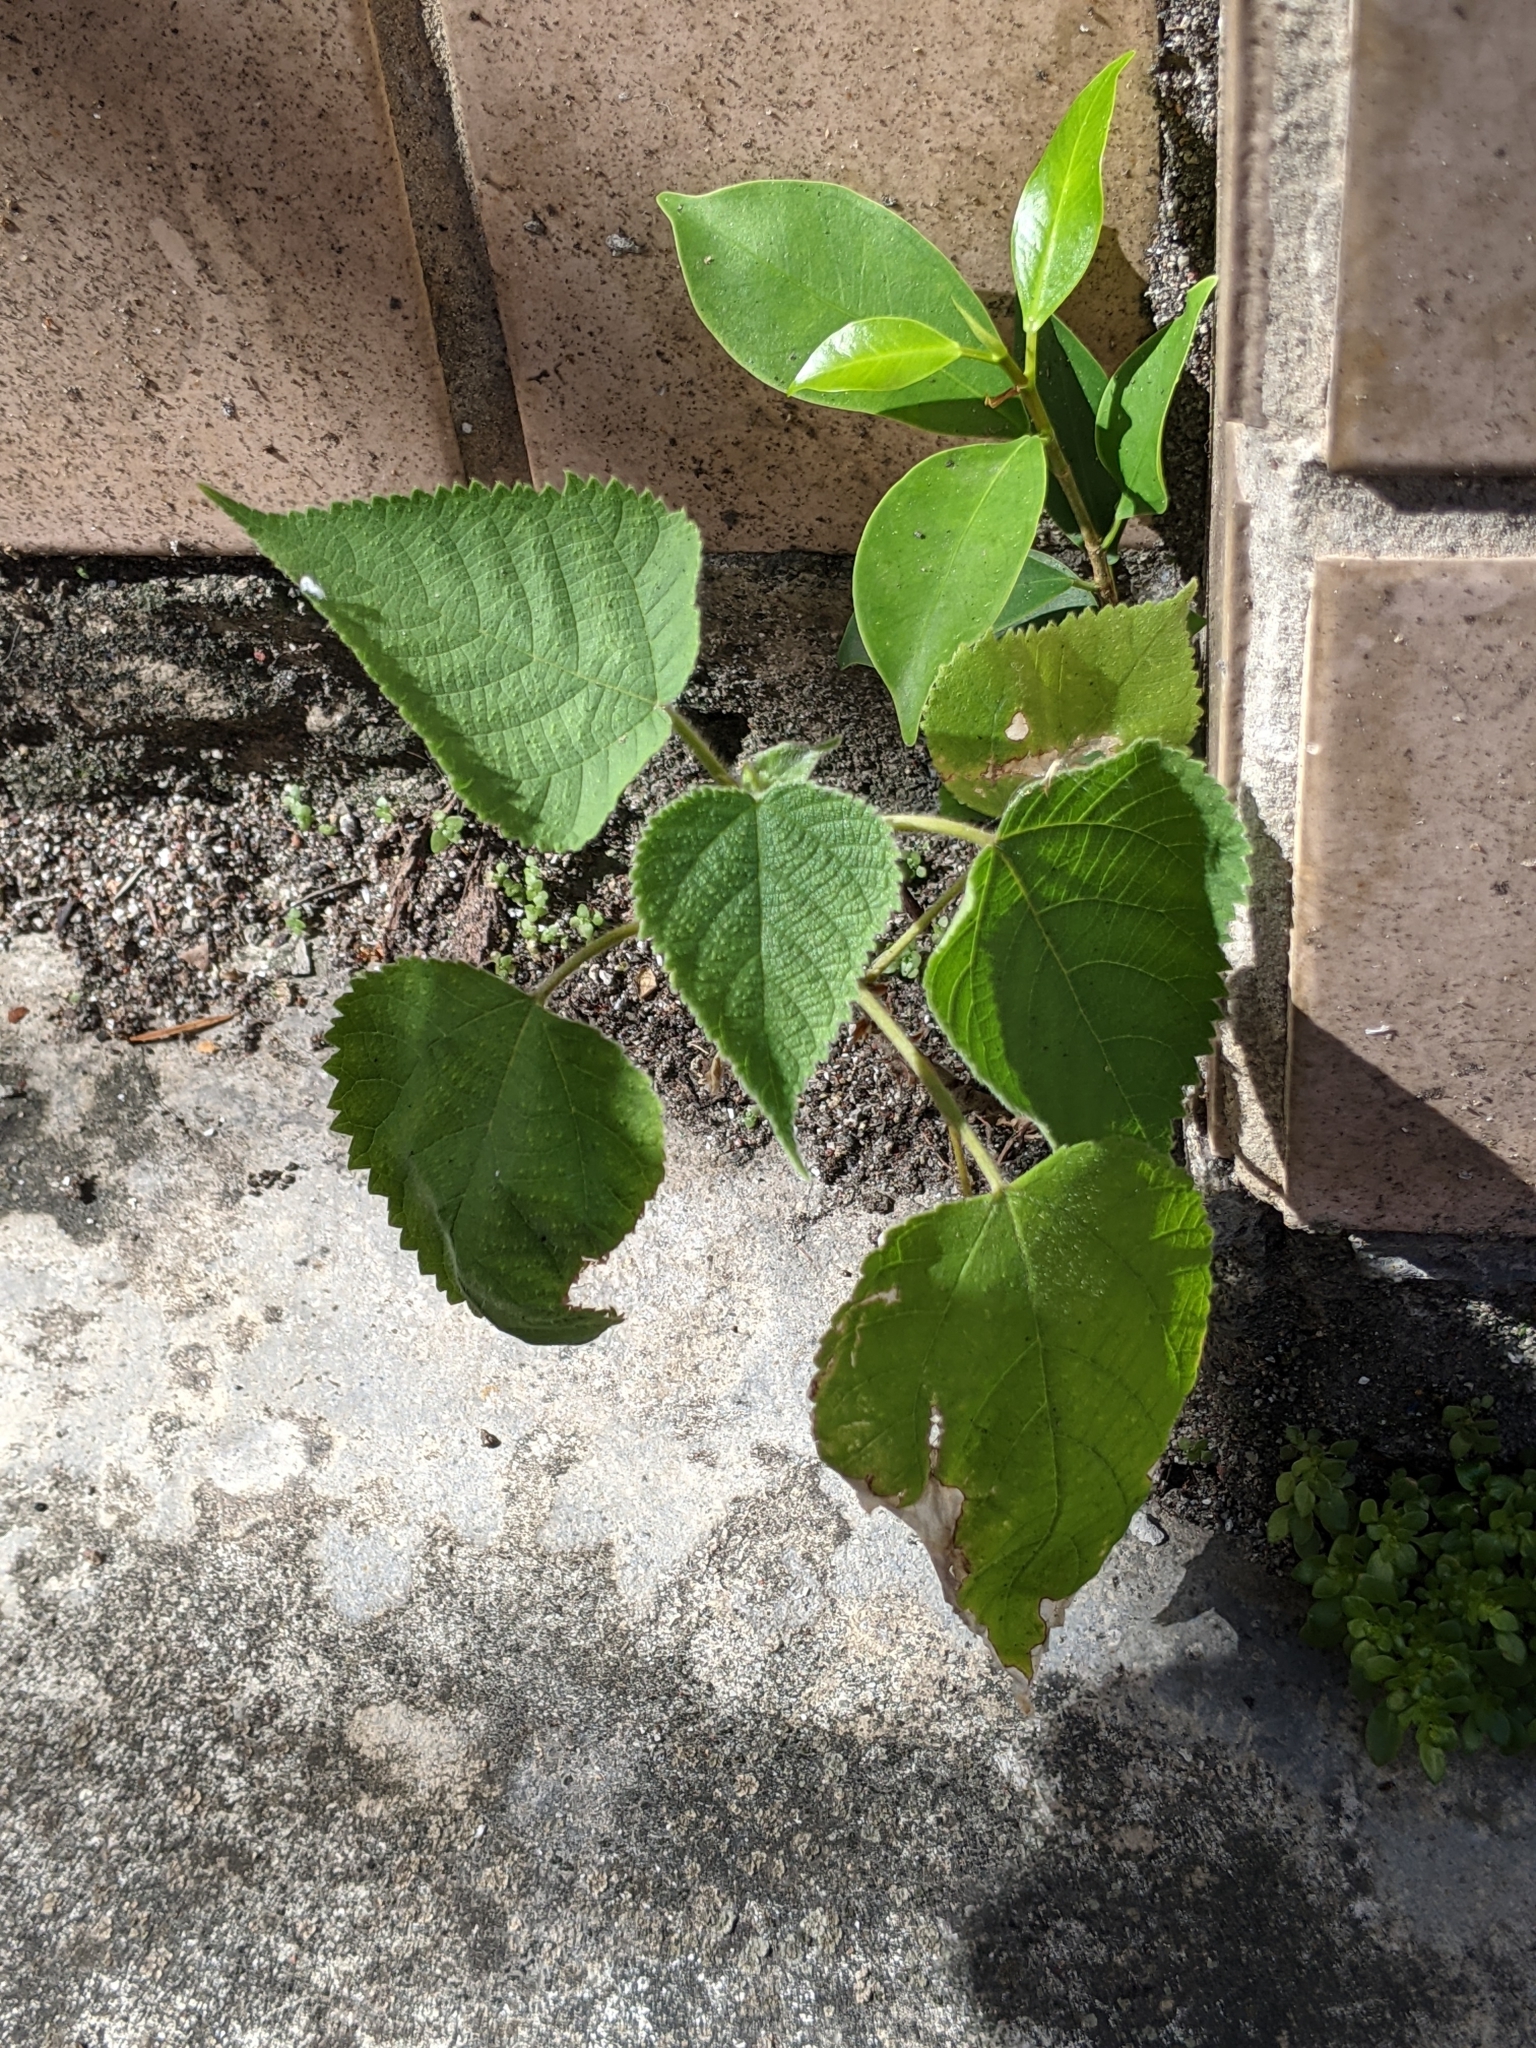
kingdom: Plantae
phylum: Tracheophyta
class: Magnoliopsida
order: Rosales
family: Moraceae
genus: Broussonetia
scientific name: Broussonetia papyrifera
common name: Paper mulberry
